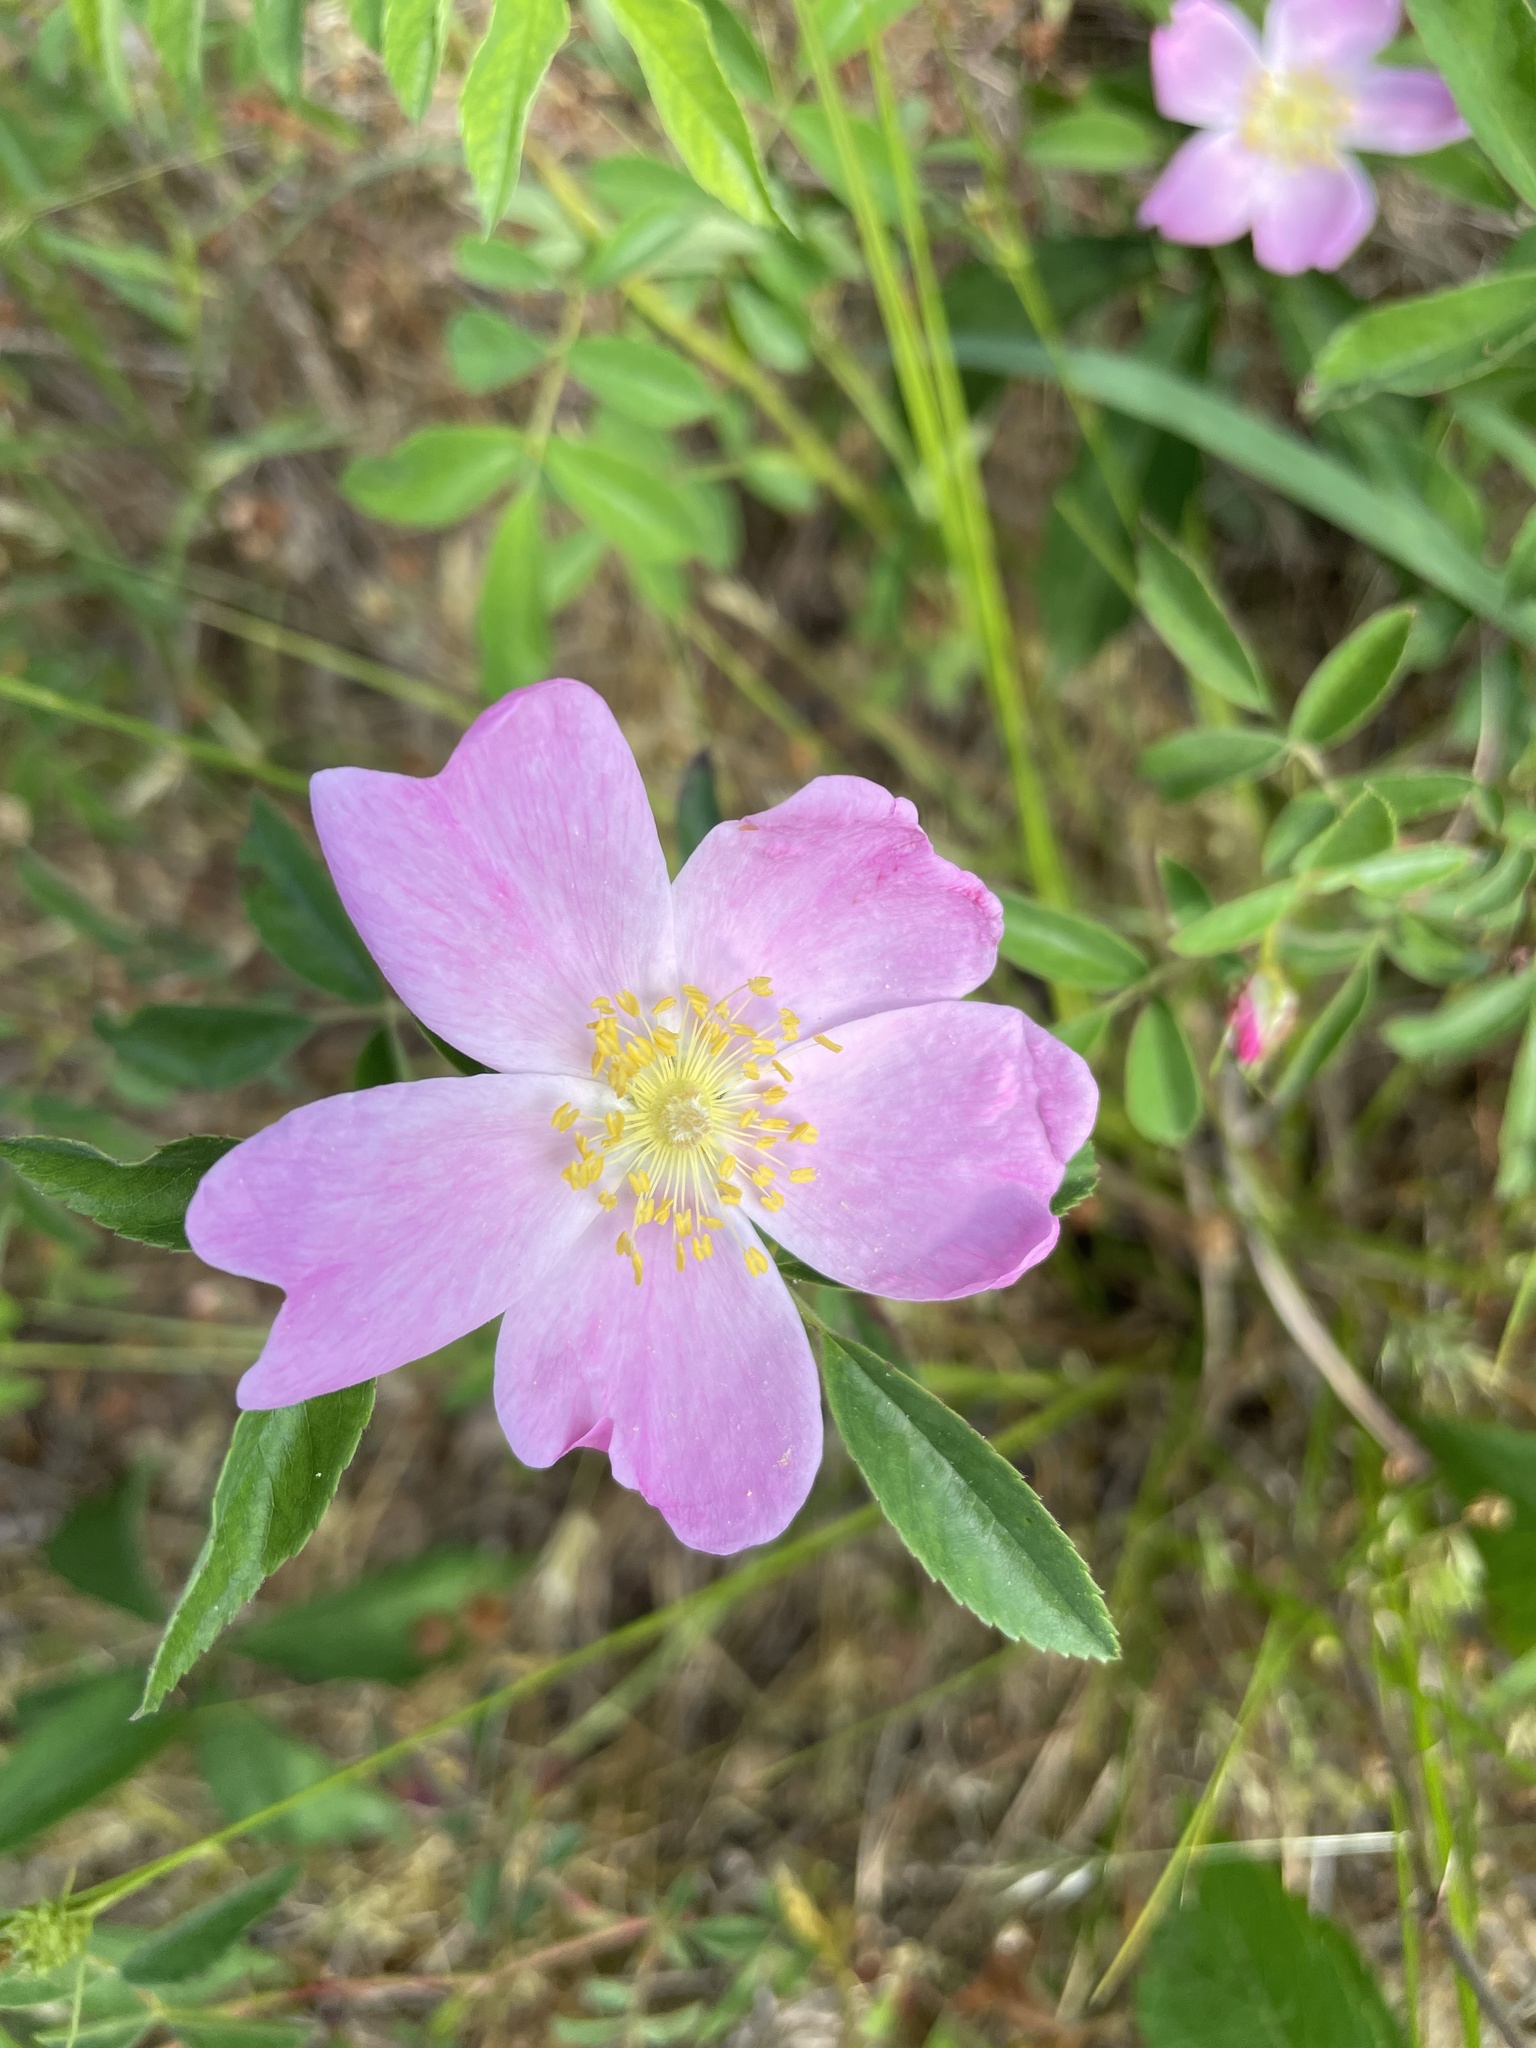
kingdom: Plantae
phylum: Tracheophyta
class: Magnoliopsida
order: Rosales
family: Rosaceae
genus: Rosa
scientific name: Rosa carolina
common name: Pasture rose
